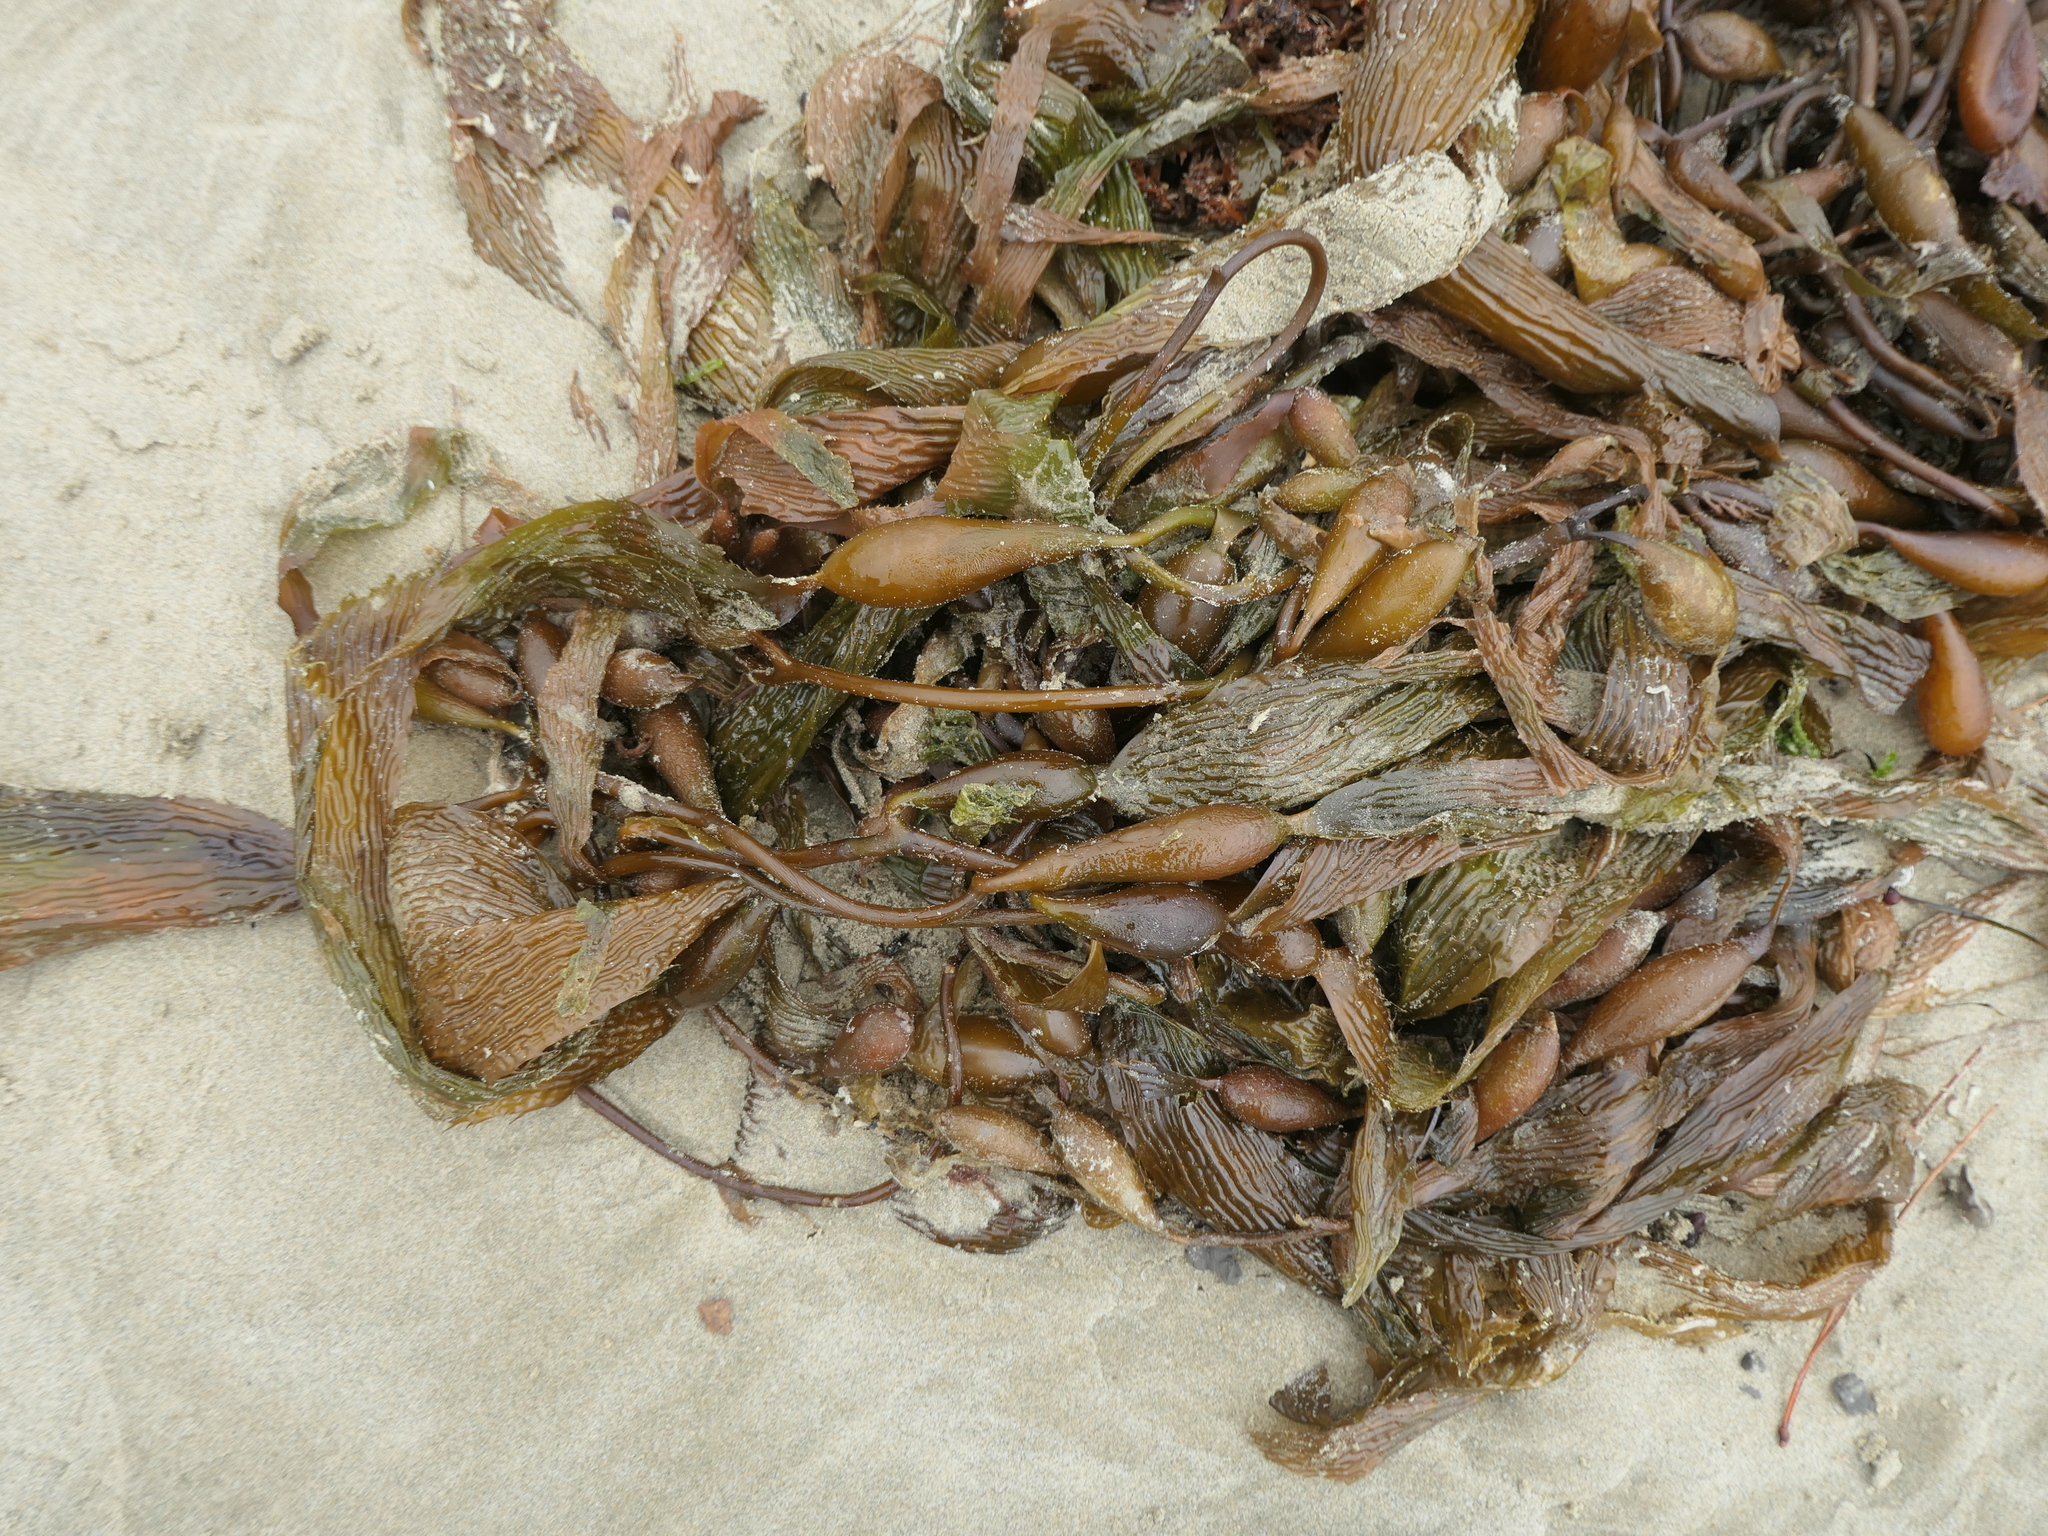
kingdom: Chromista
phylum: Ochrophyta
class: Phaeophyceae
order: Laminariales
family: Laminariaceae
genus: Macrocystis
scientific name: Macrocystis pyrifera
